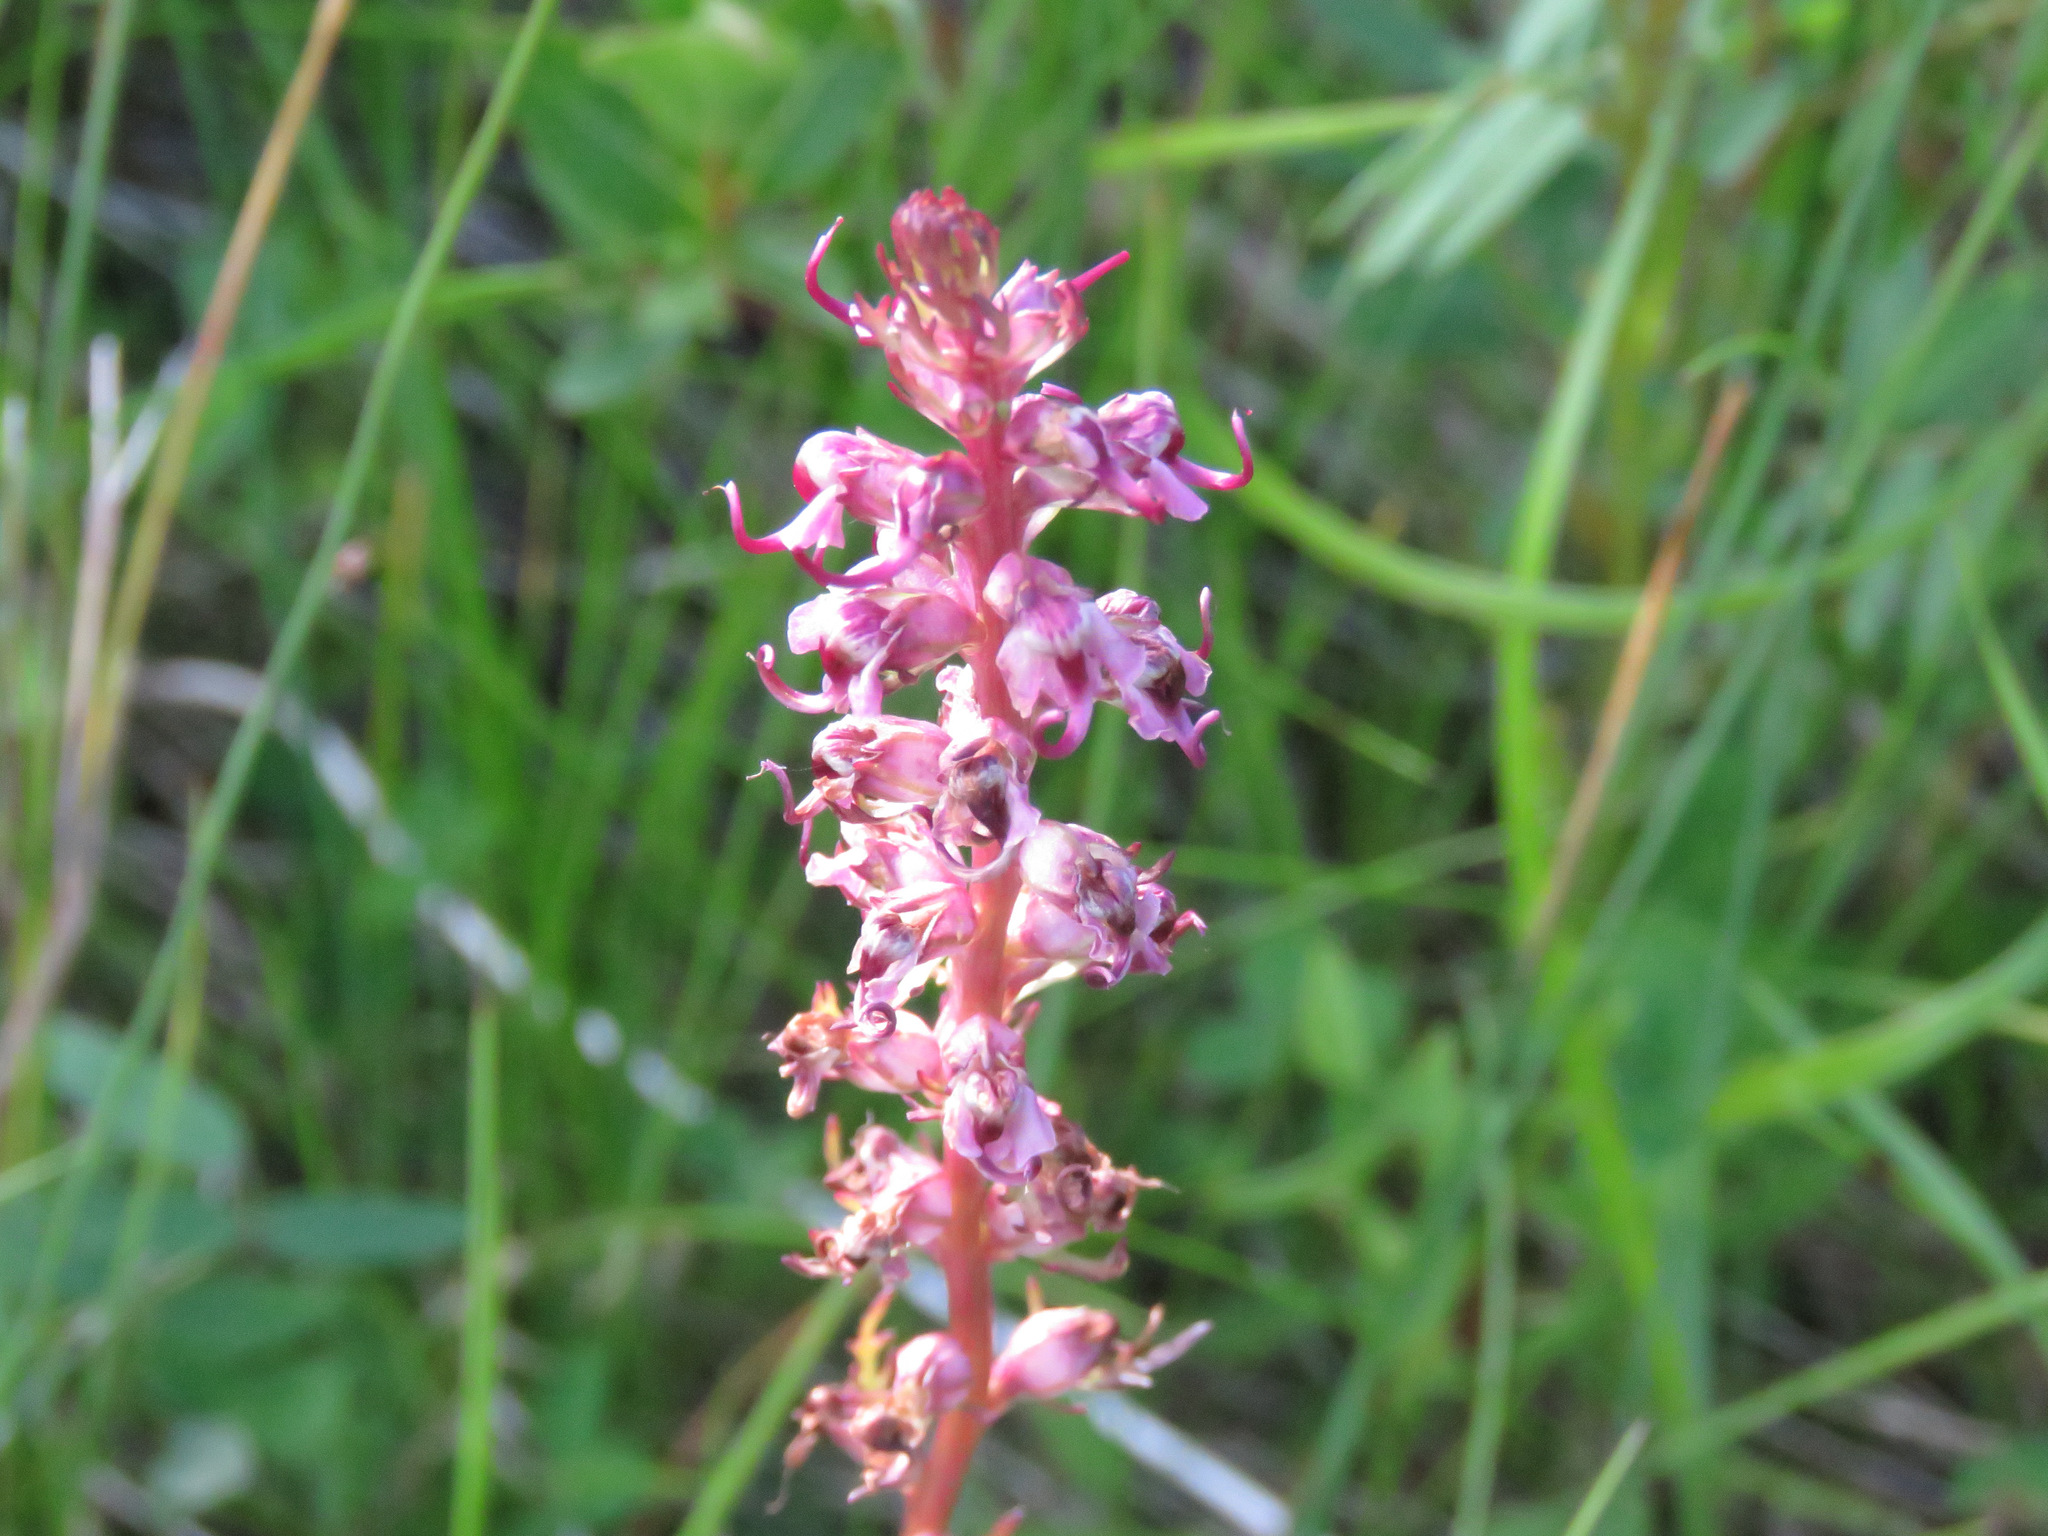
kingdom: Plantae
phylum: Tracheophyta
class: Magnoliopsida
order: Lamiales
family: Orobanchaceae
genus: Pedicularis
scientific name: Pedicularis groenlandica
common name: Elephant's-head
